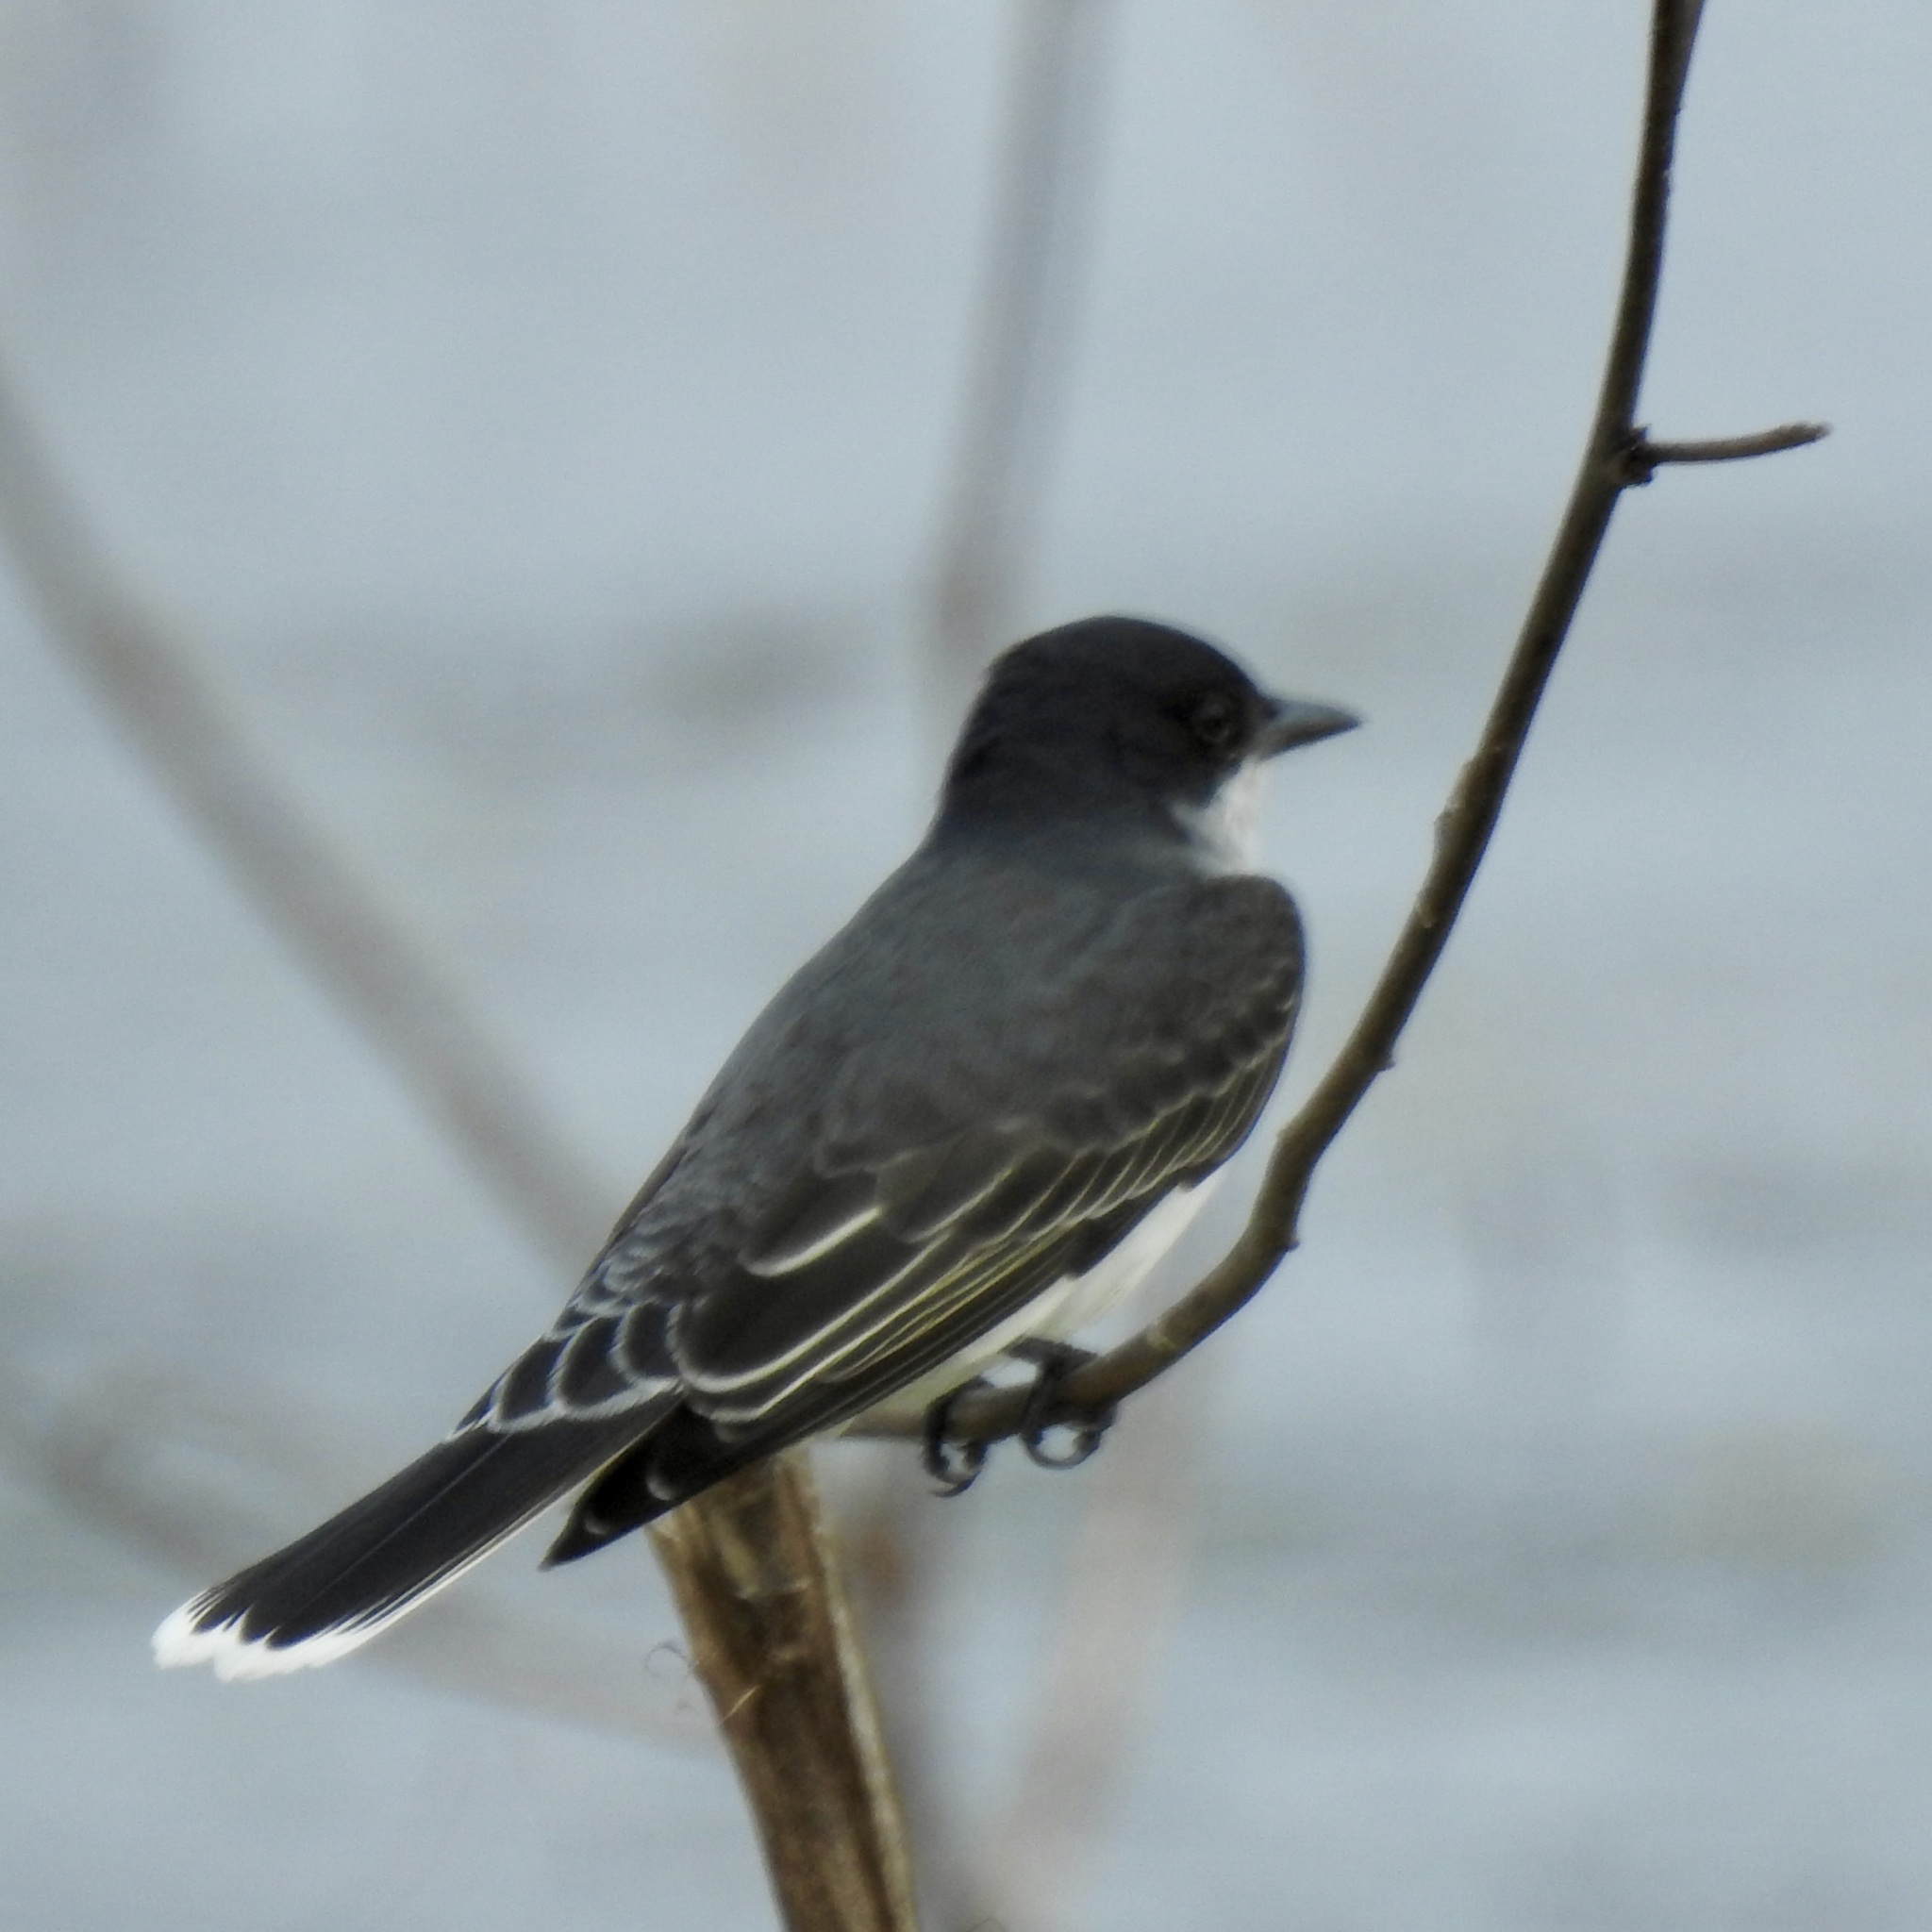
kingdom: Animalia
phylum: Chordata
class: Aves
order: Passeriformes
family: Tyrannidae
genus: Tyrannus
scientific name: Tyrannus tyrannus
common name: Eastern kingbird
